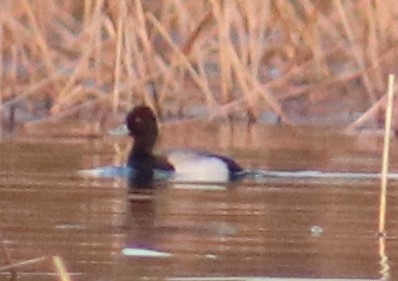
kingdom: Animalia
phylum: Chordata
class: Aves
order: Anseriformes
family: Anatidae
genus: Aythya
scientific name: Aythya affinis
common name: Lesser scaup
